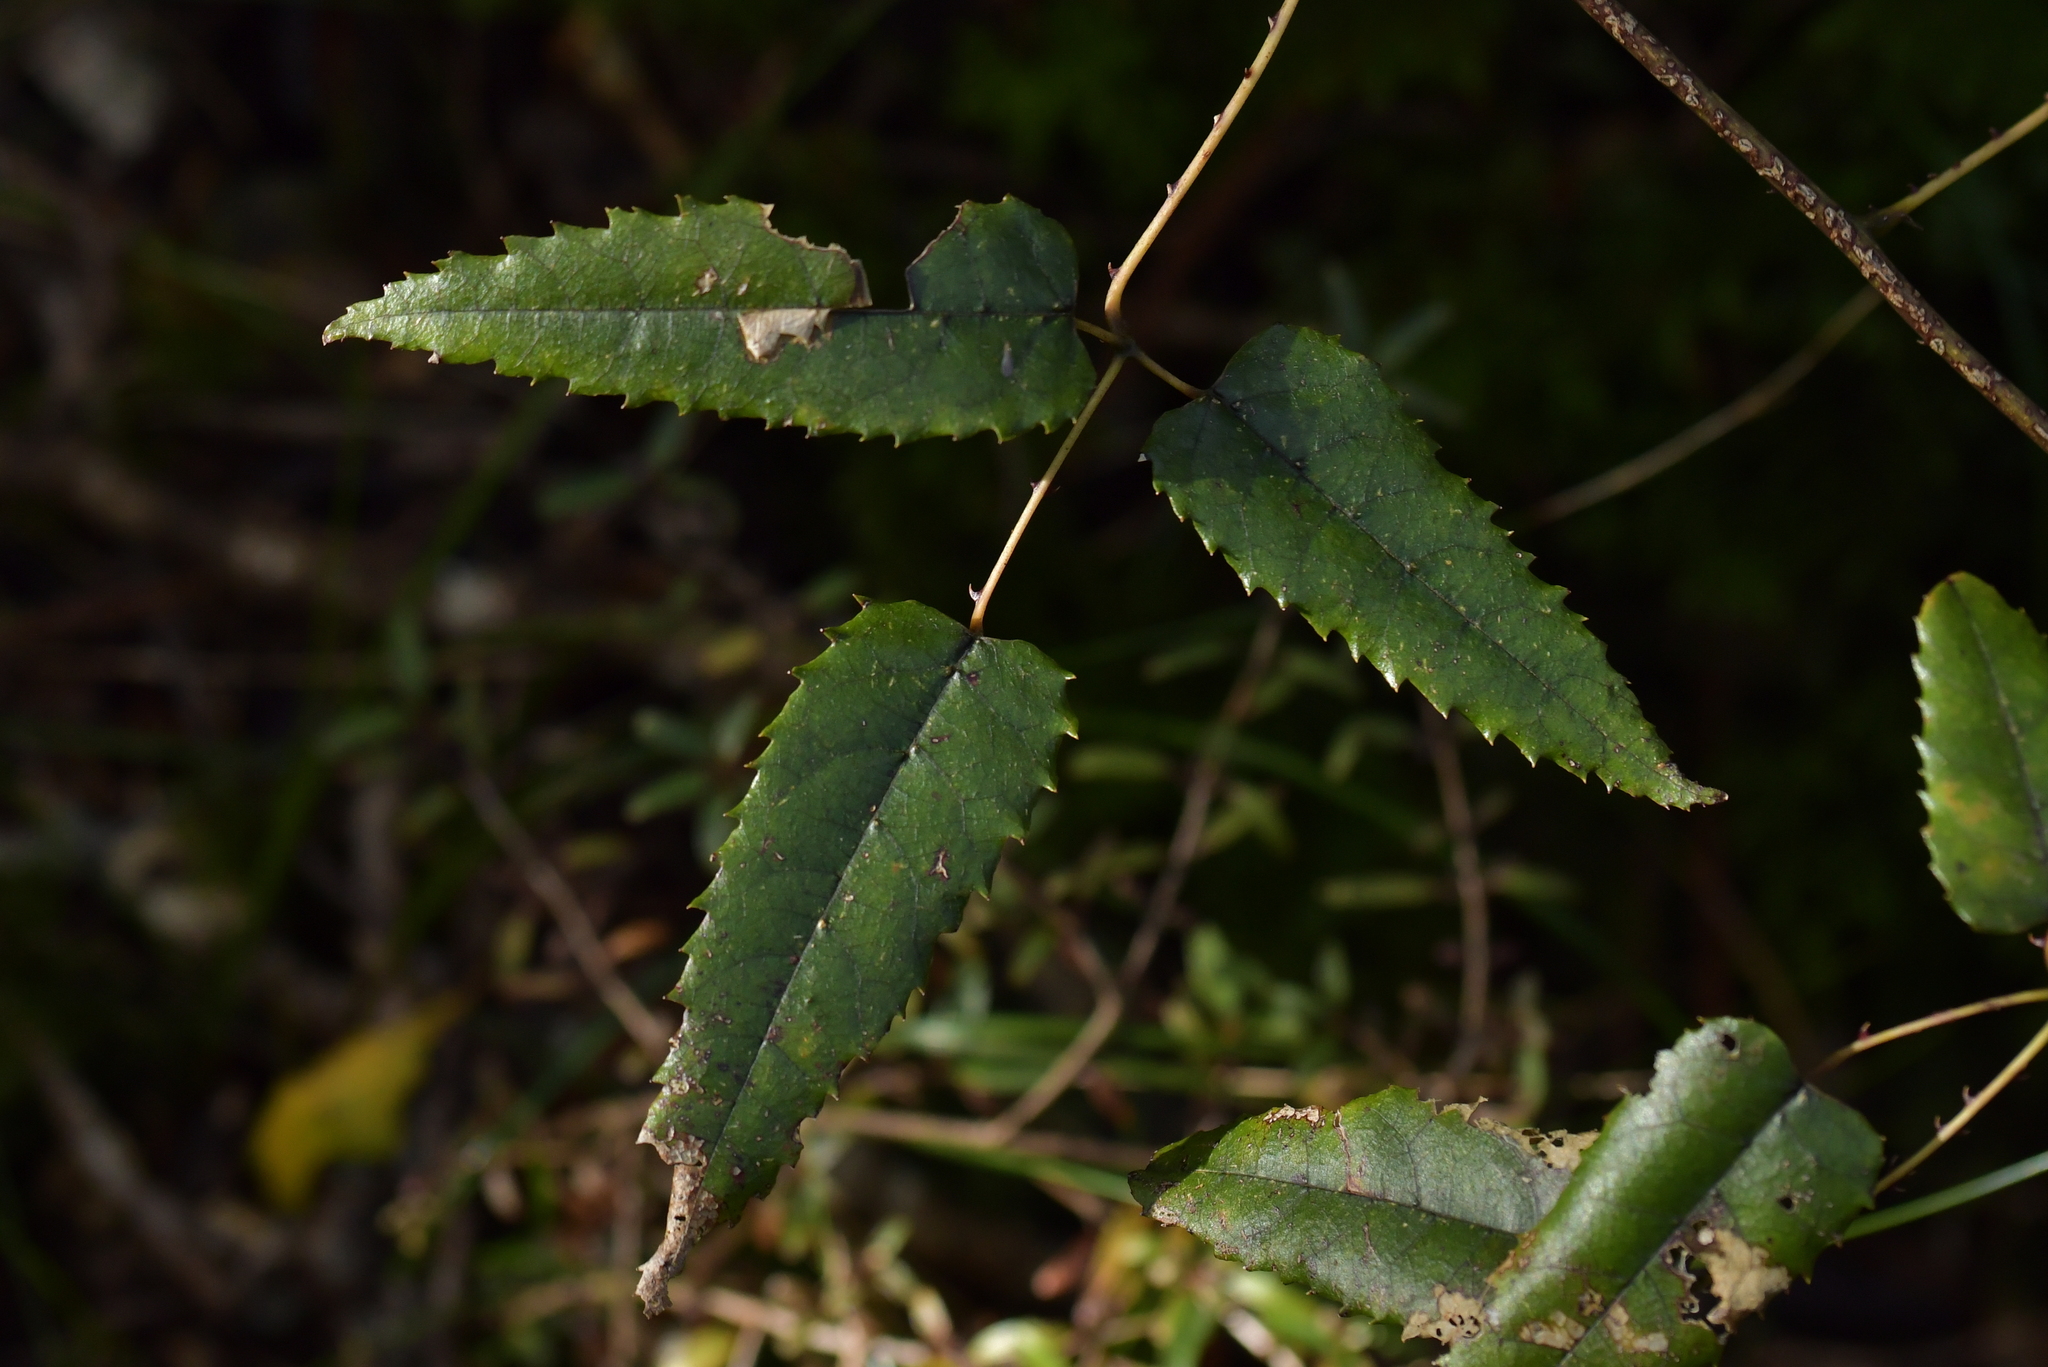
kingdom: Plantae
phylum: Tracheophyta
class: Magnoliopsida
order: Rosales
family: Rosaceae
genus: Rubus
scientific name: Rubus cissoides
